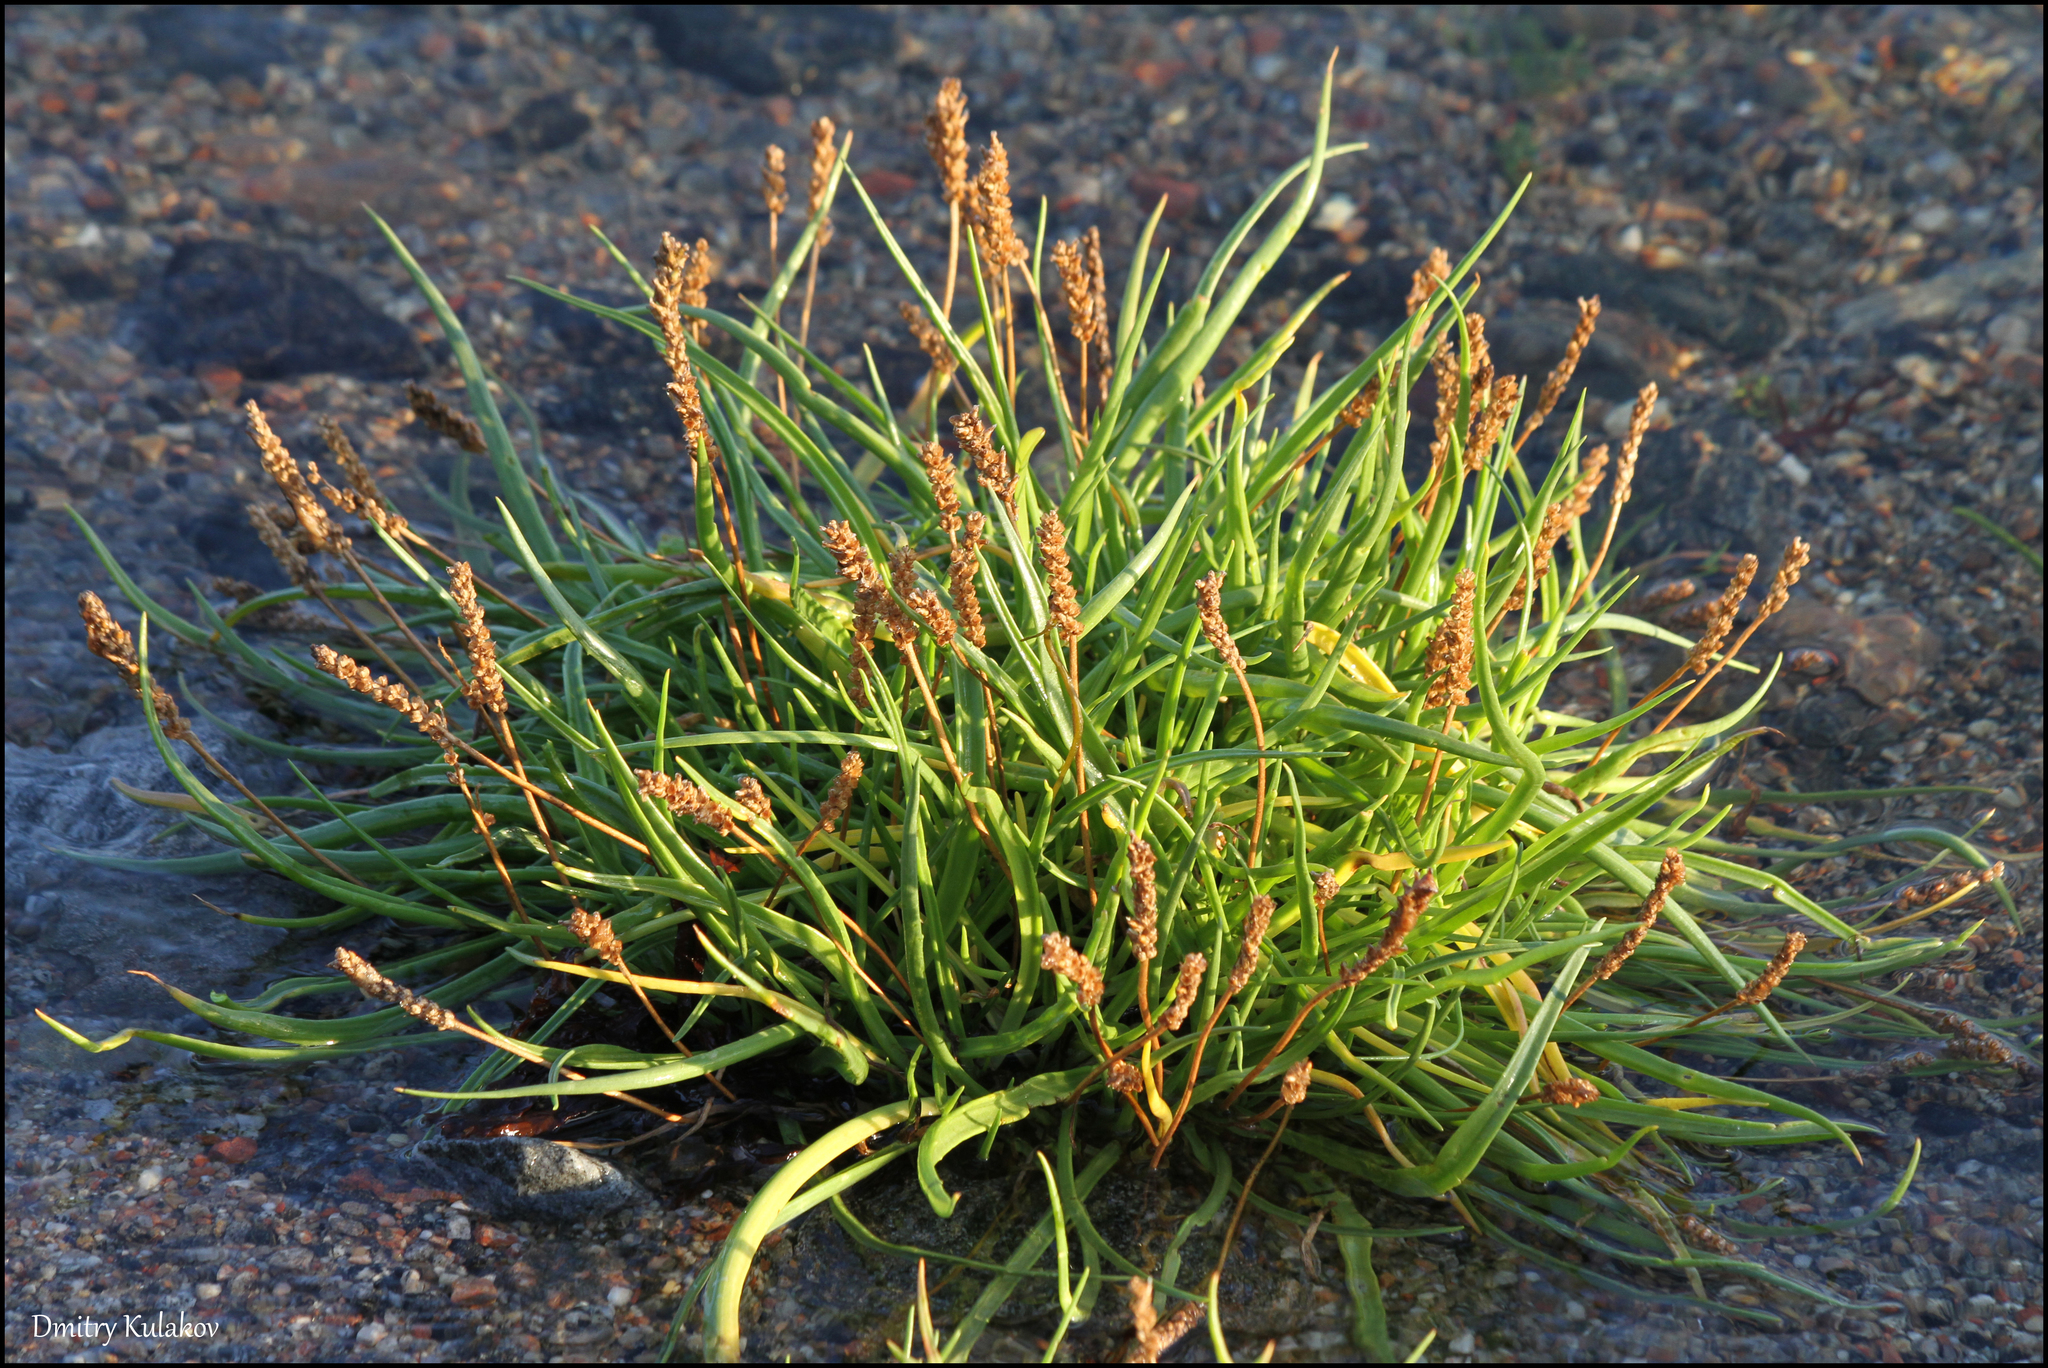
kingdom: Plantae
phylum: Tracheophyta
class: Magnoliopsida
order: Lamiales
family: Plantaginaceae
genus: Plantago
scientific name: Plantago maritima
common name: Sea plantain
